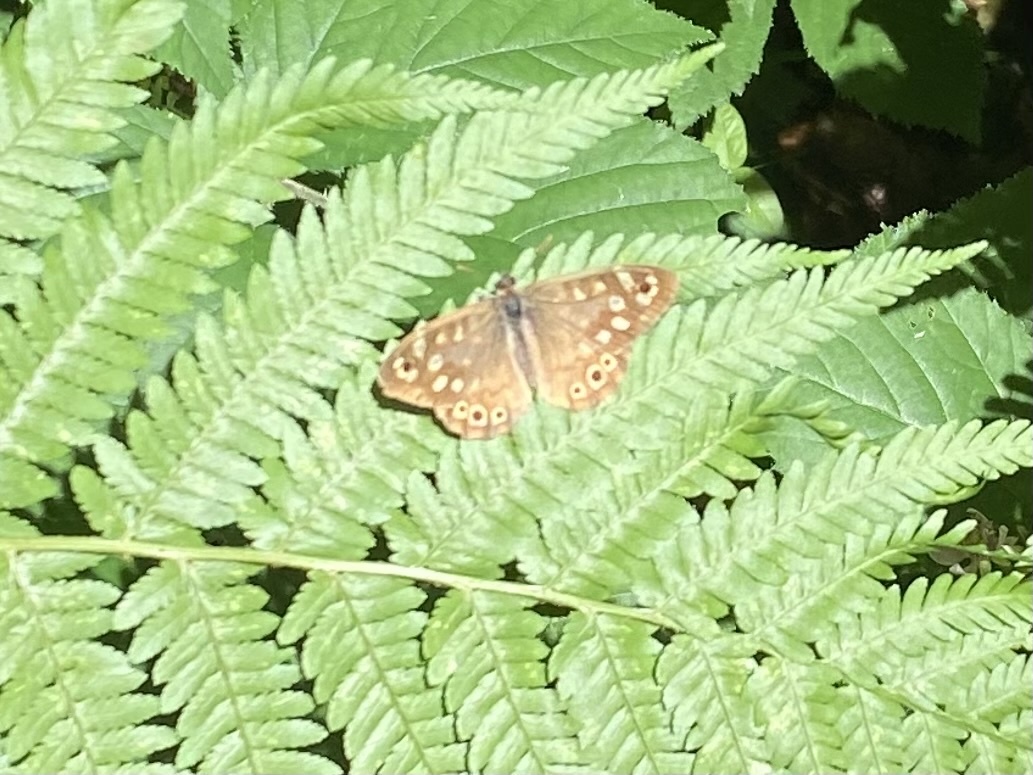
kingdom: Animalia
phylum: Arthropoda
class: Insecta
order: Lepidoptera
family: Nymphalidae
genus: Pararge
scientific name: Pararge aegeria
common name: Speckled wood
